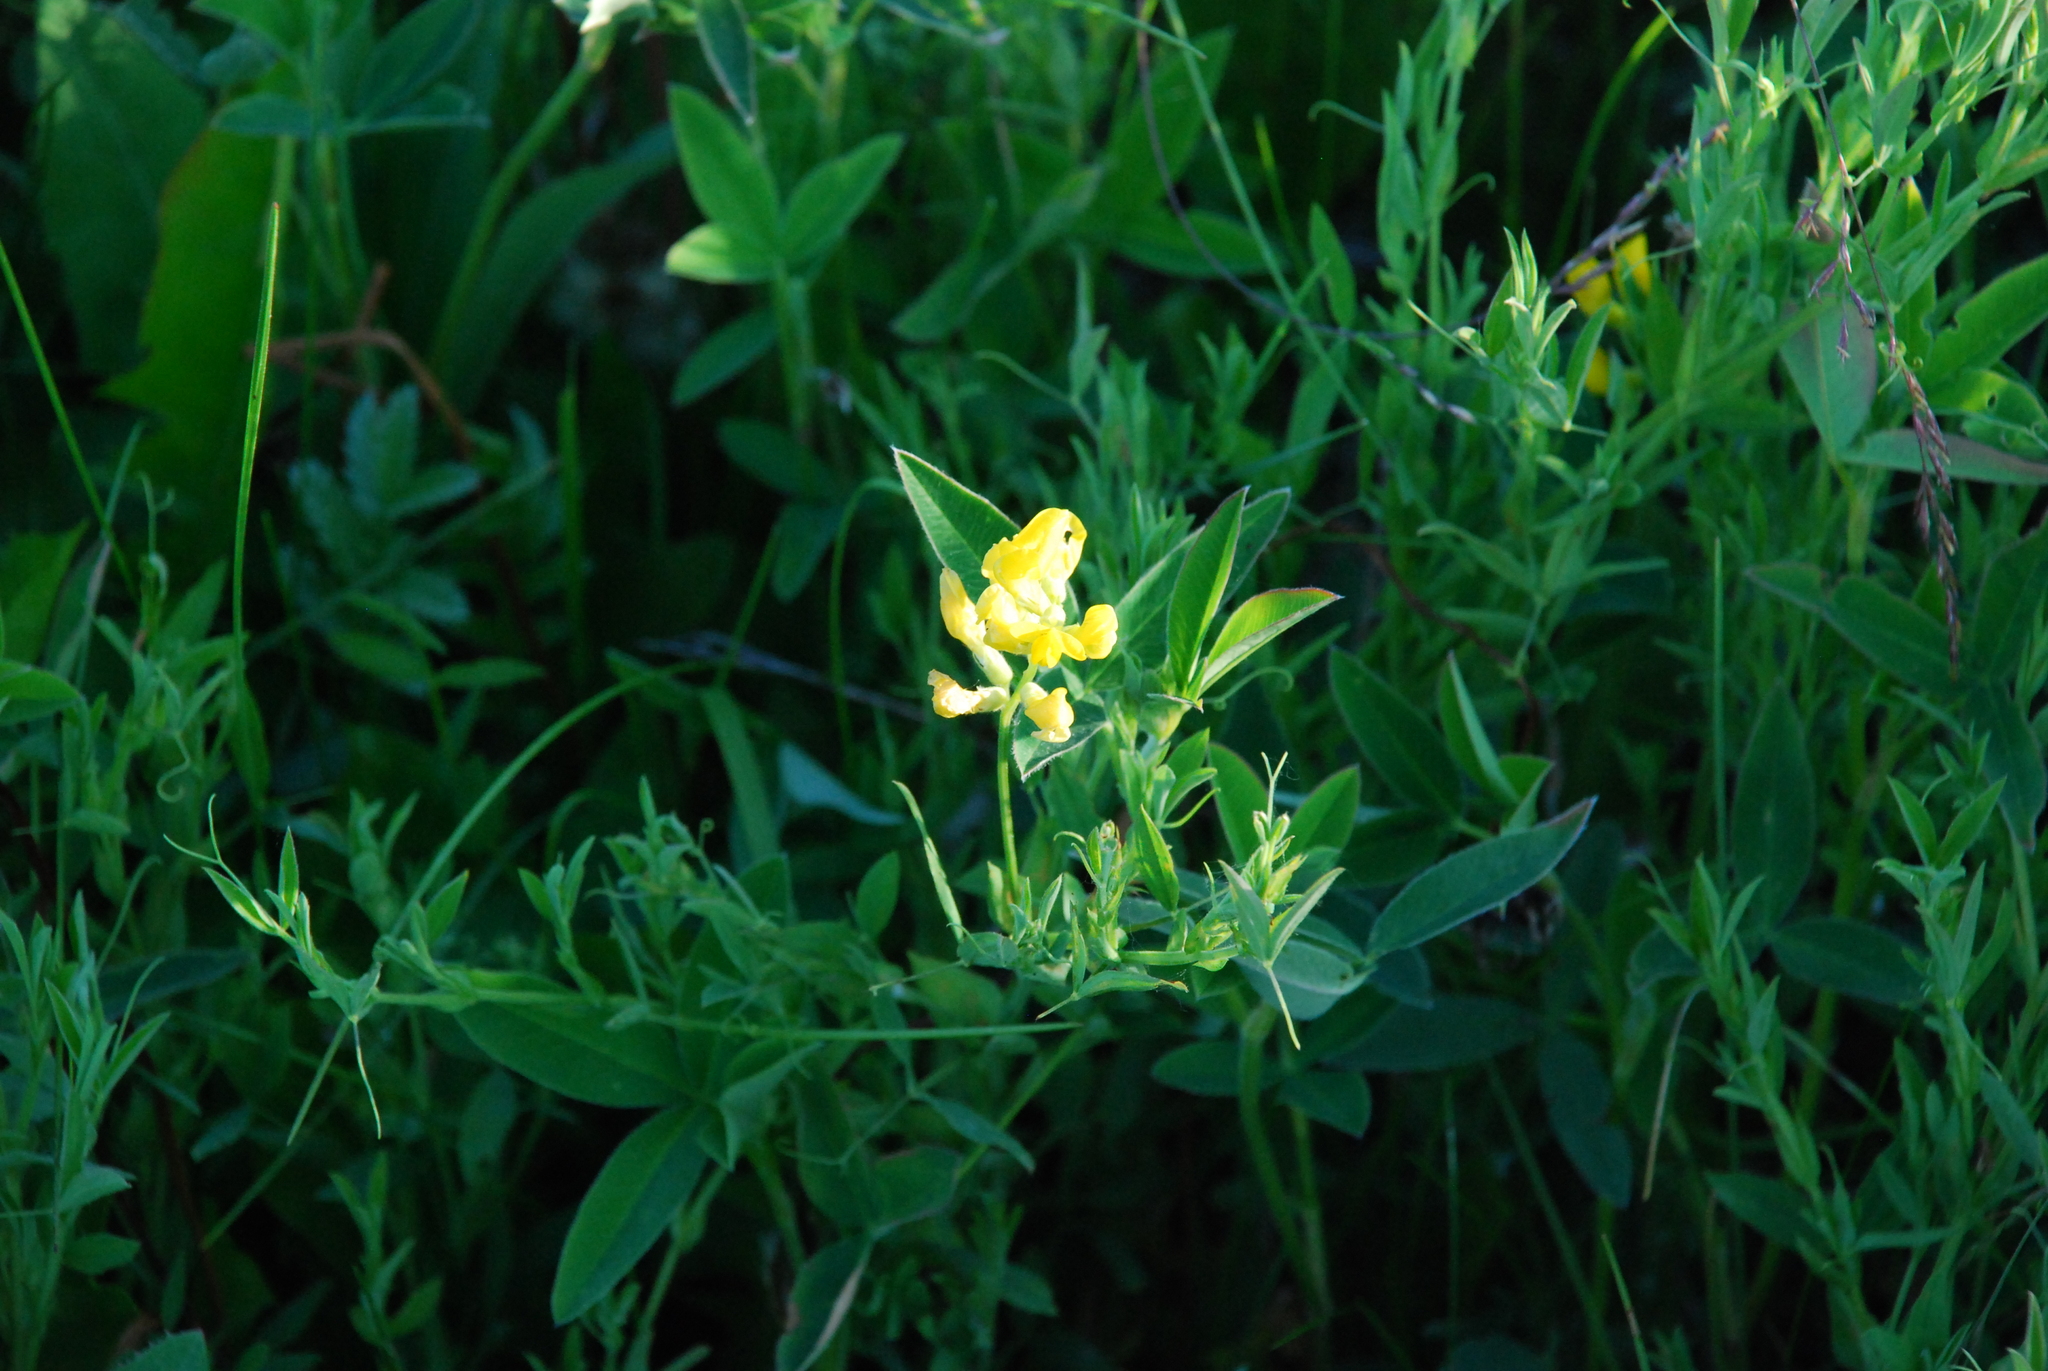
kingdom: Plantae
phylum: Tracheophyta
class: Magnoliopsida
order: Fabales
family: Fabaceae
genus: Lathyrus
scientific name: Lathyrus pratensis
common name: Meadow vetchling
